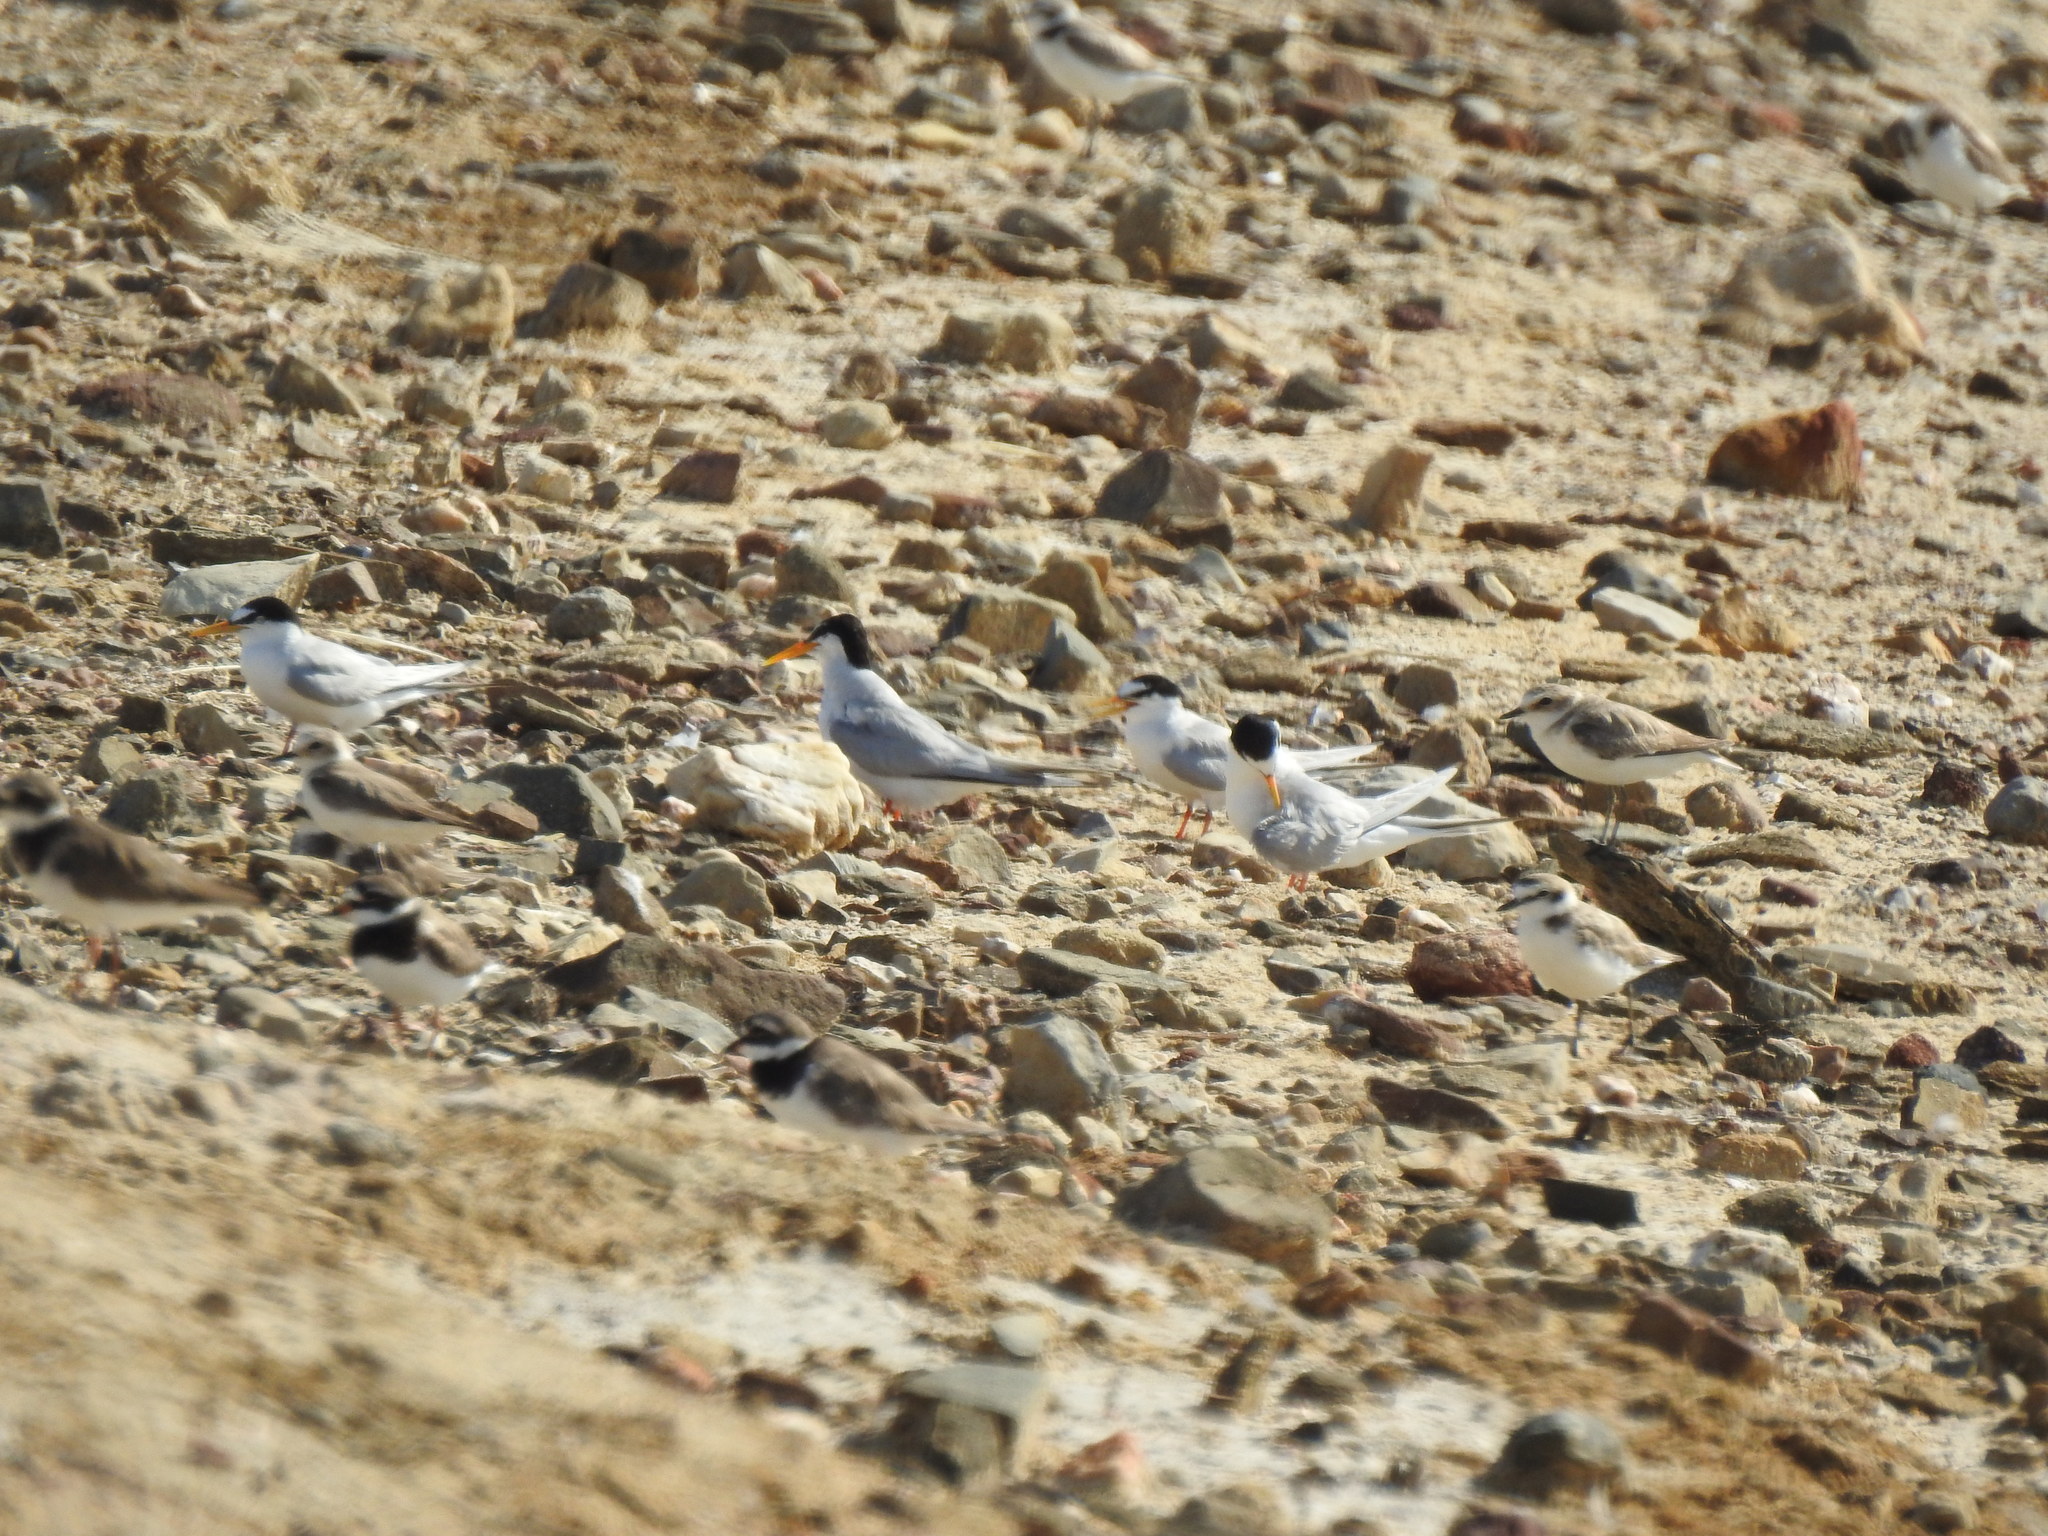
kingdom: Animalia
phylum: Chordata
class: Aves
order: Charadriiformes
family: Laridae
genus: Sternula
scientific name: Sternula albifrons
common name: Little tern
